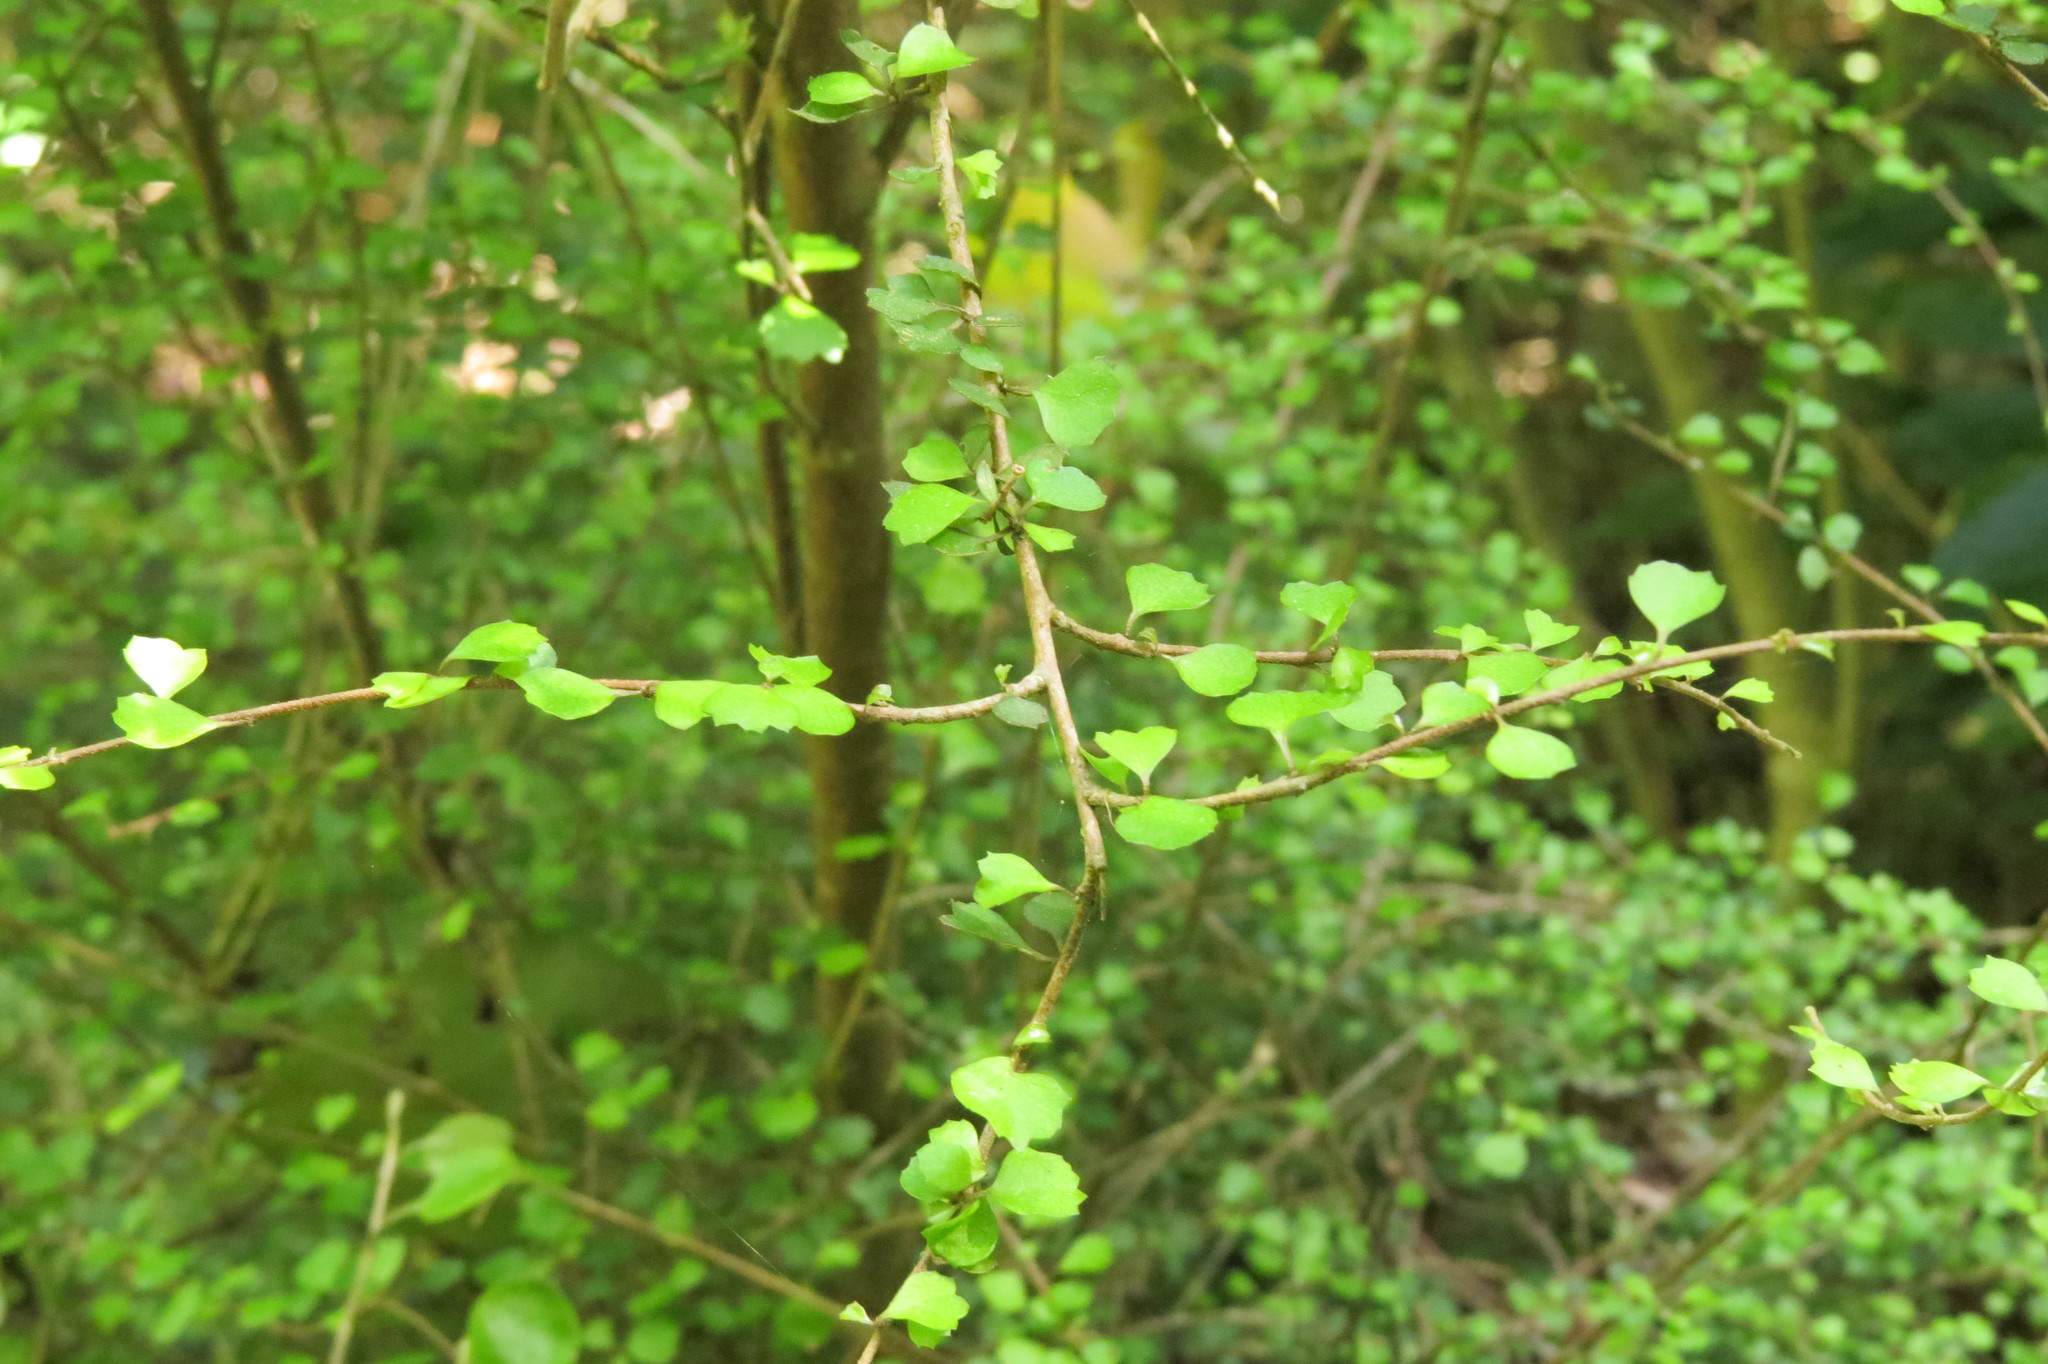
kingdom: Plantae
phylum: Tracheophyta
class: Magnoliopsida
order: Malvales
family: Malvaceae
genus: Hoheria
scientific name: Hoheria angustifolia
